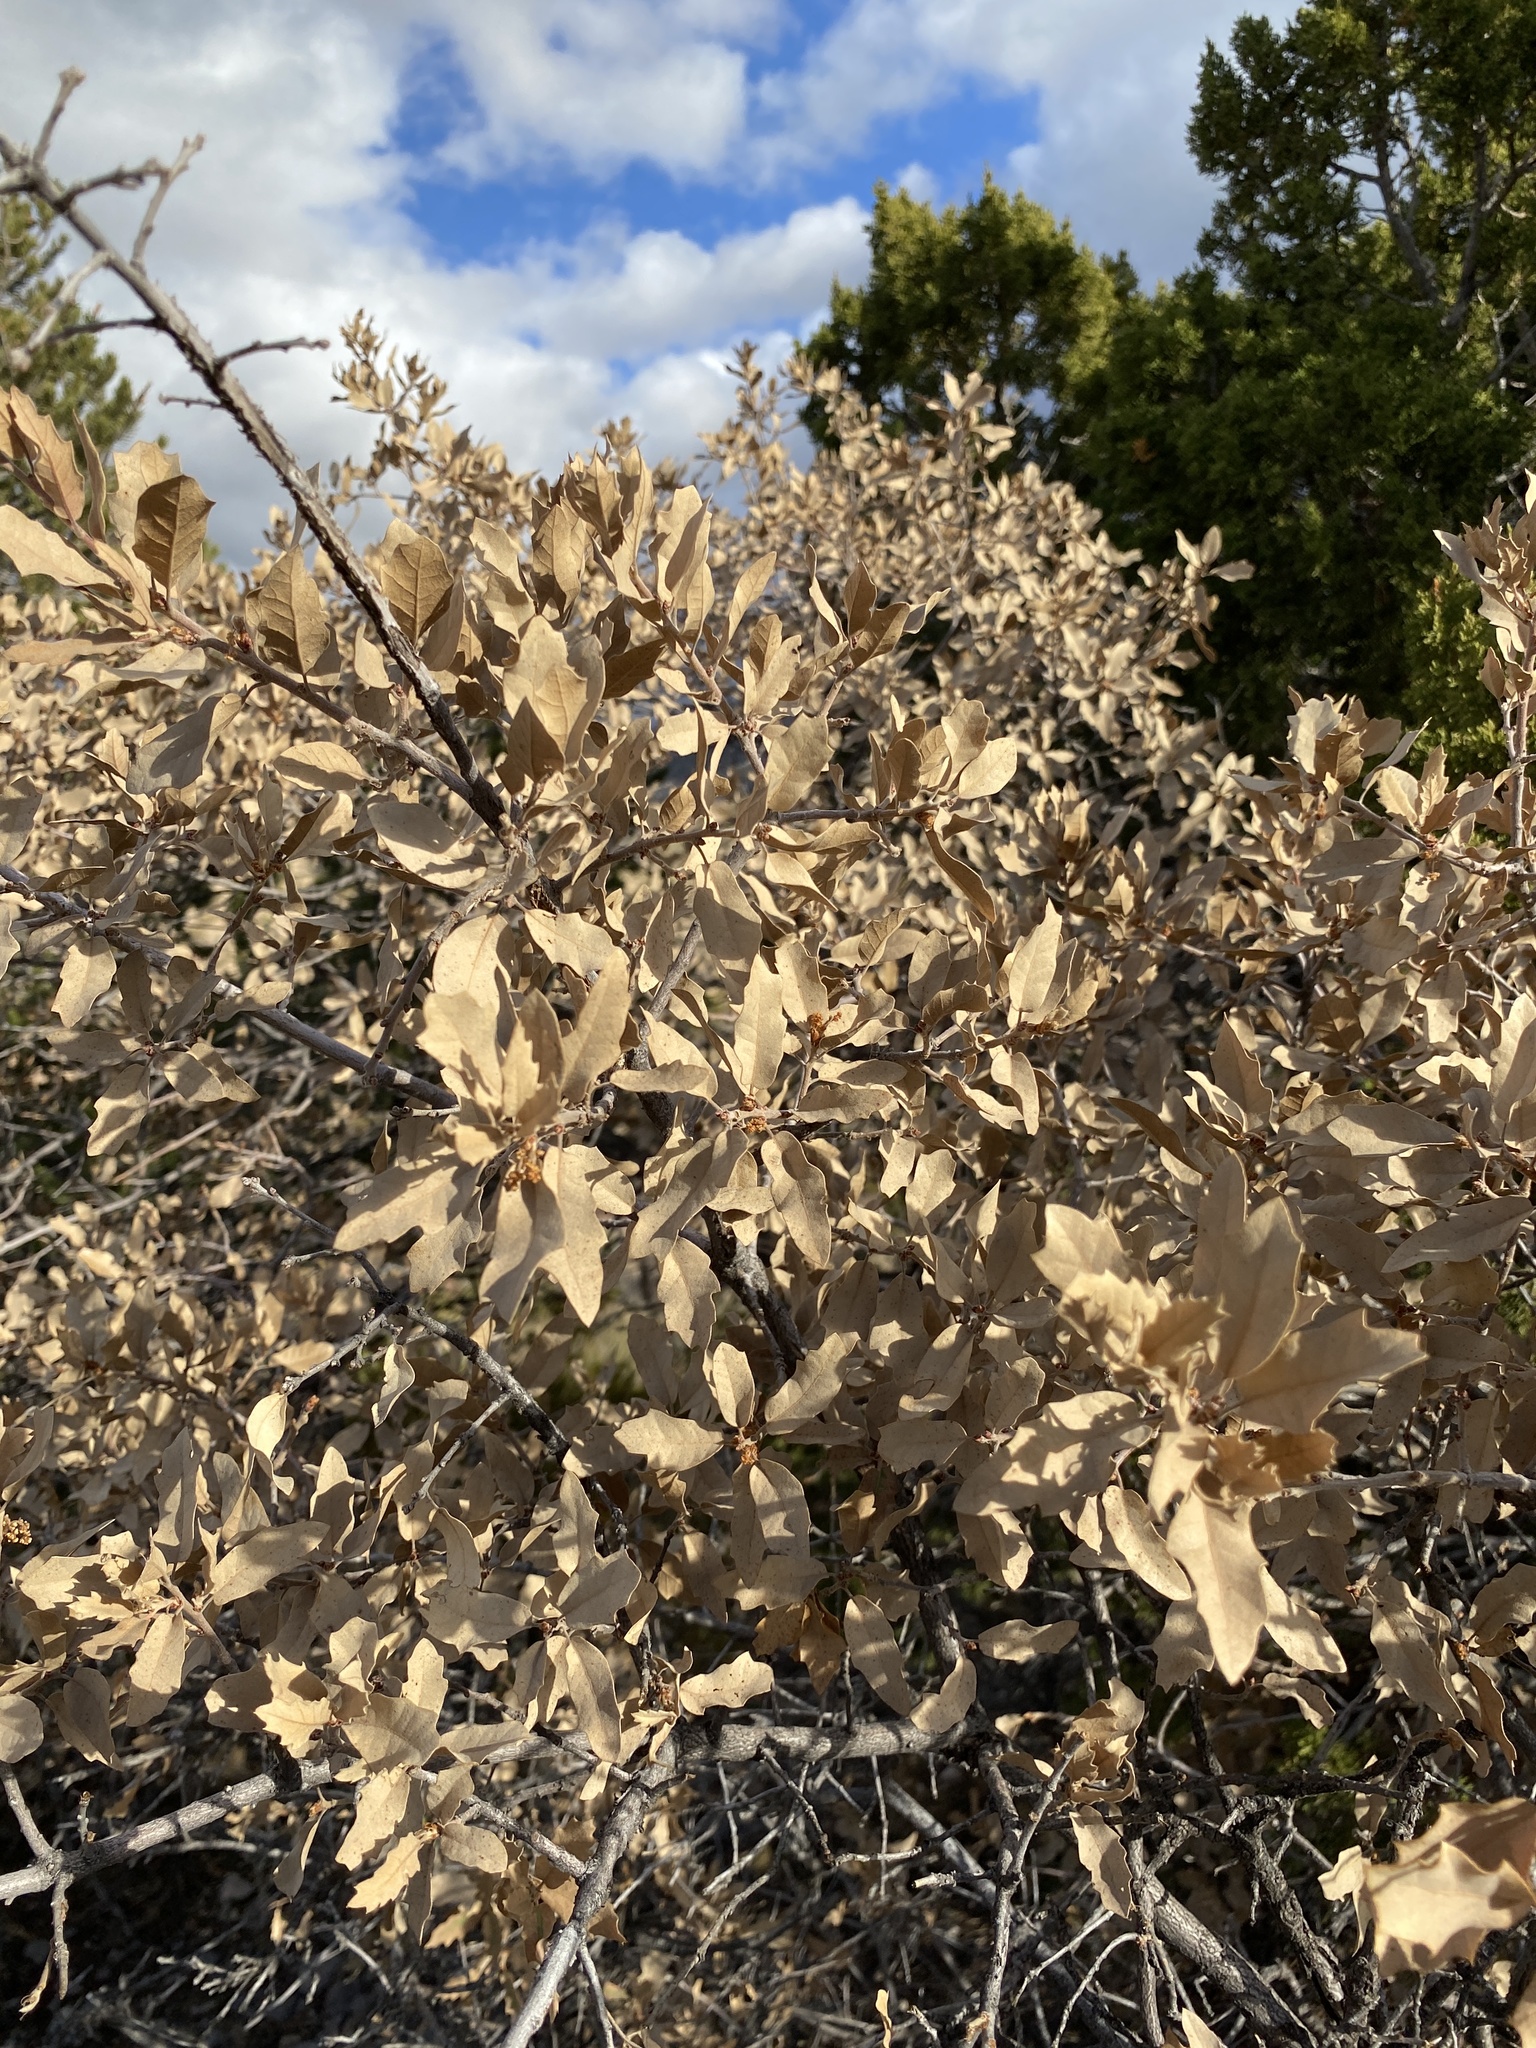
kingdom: Plantae
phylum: Tracheophyta
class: Magnoliopsida
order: Fagales
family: Fagaceae
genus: Quercus
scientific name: Quercus undulata
